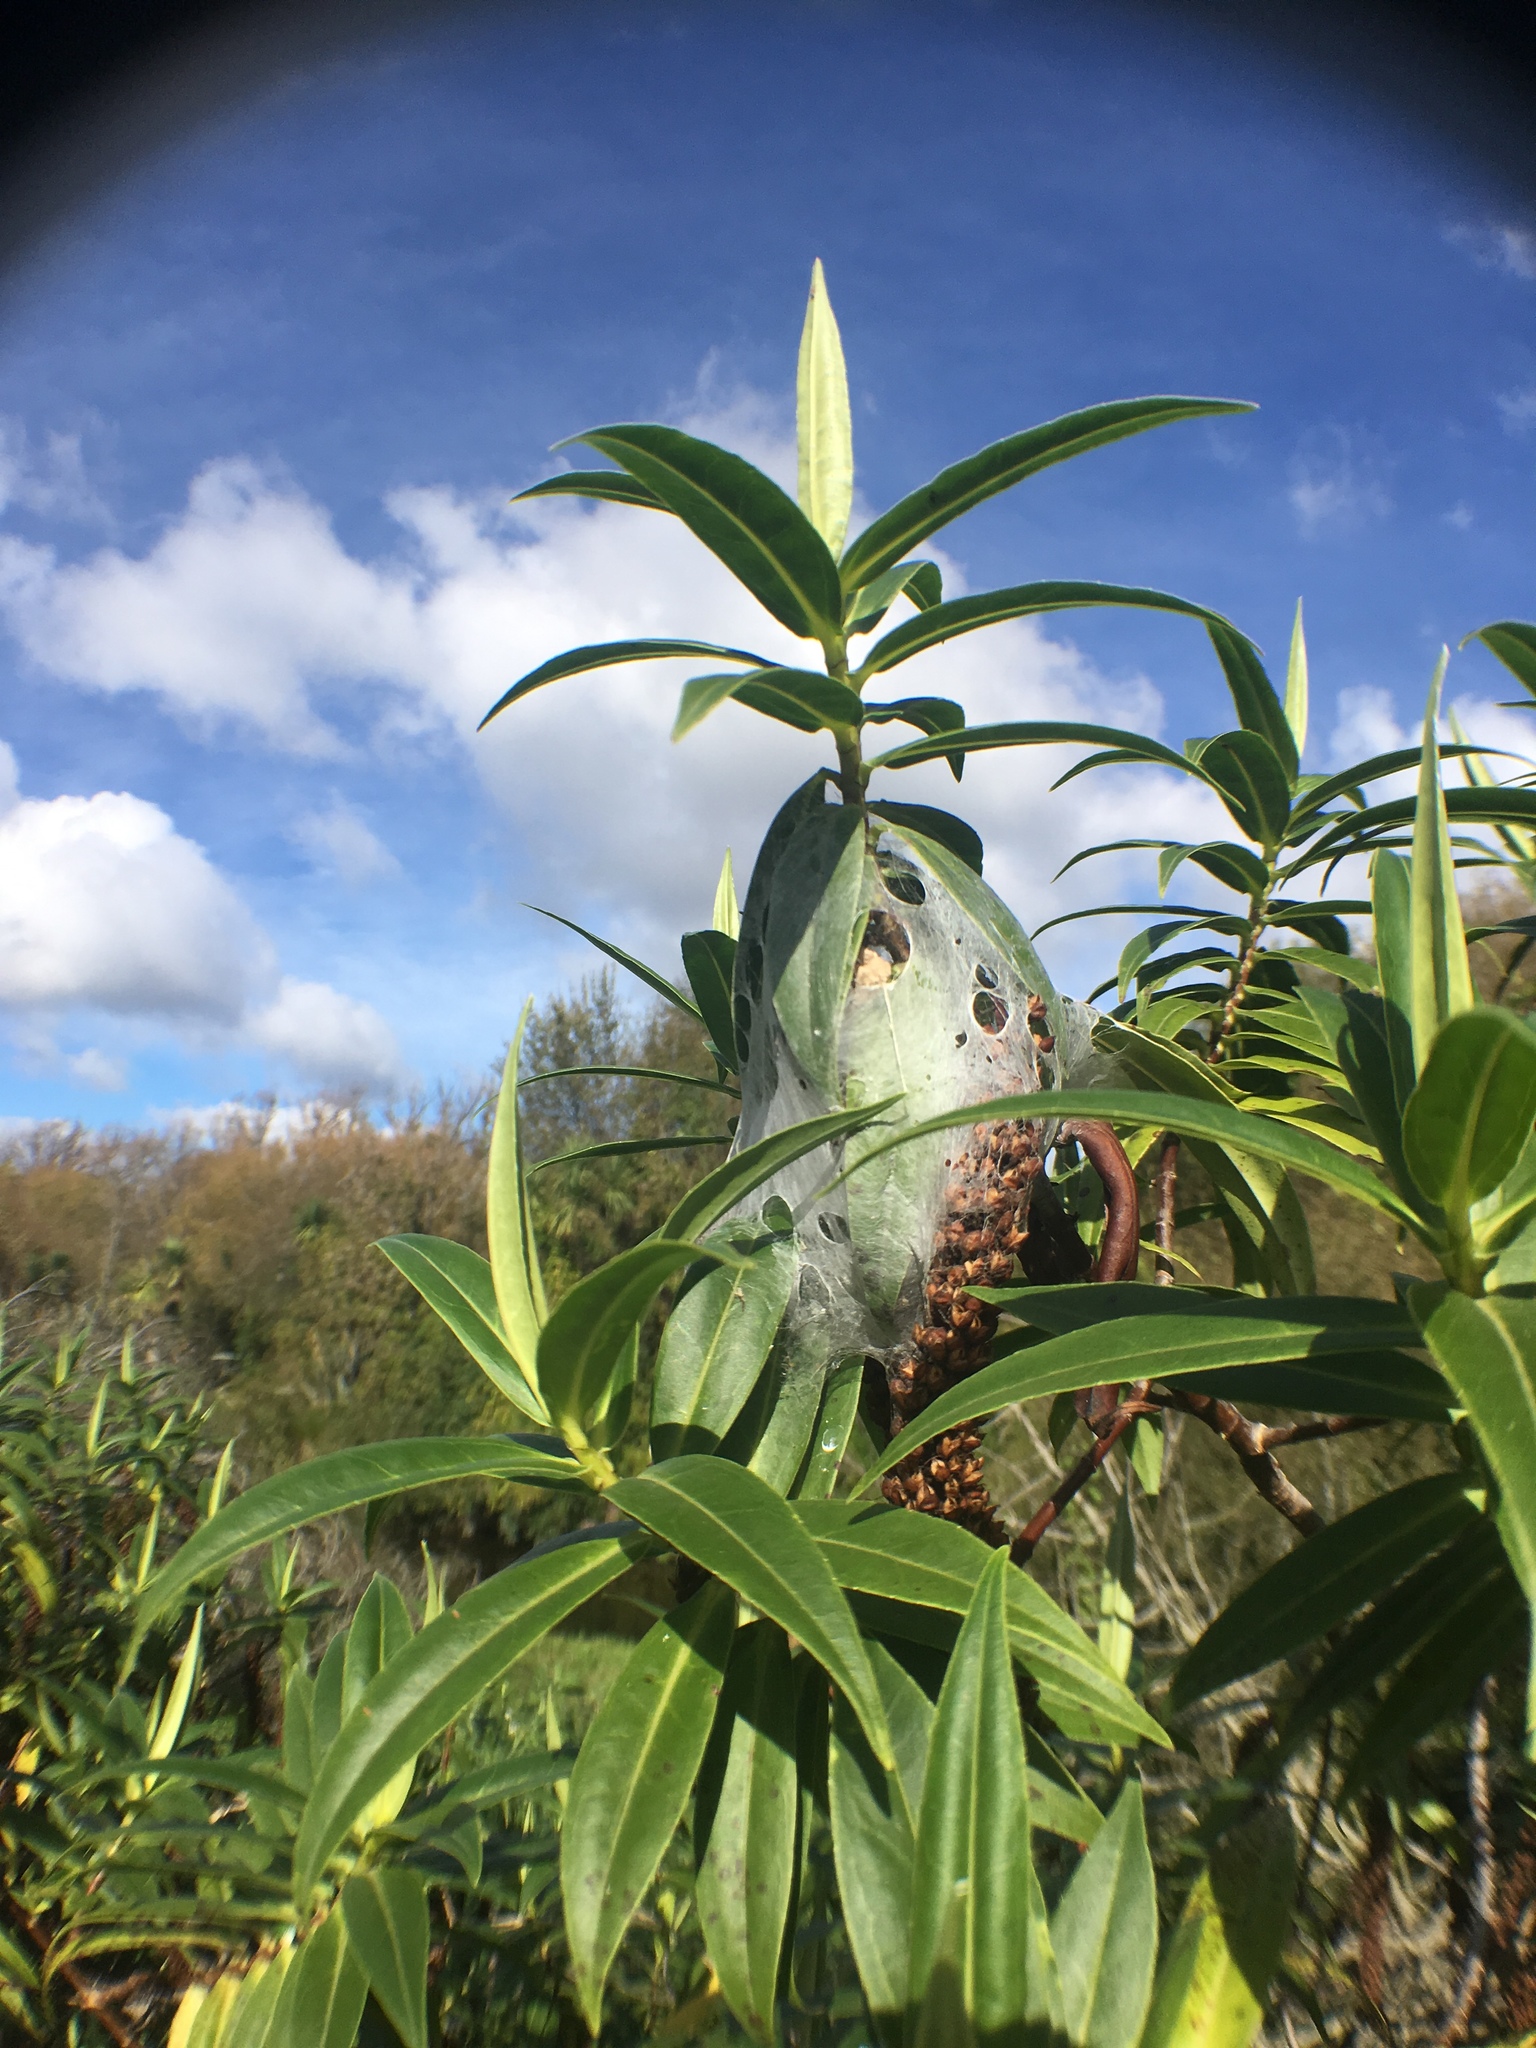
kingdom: Animalia
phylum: Arthropoda
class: Arachnida
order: Araneae
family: Pisauridae
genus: Dolomedes
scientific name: Dolomedes minor
